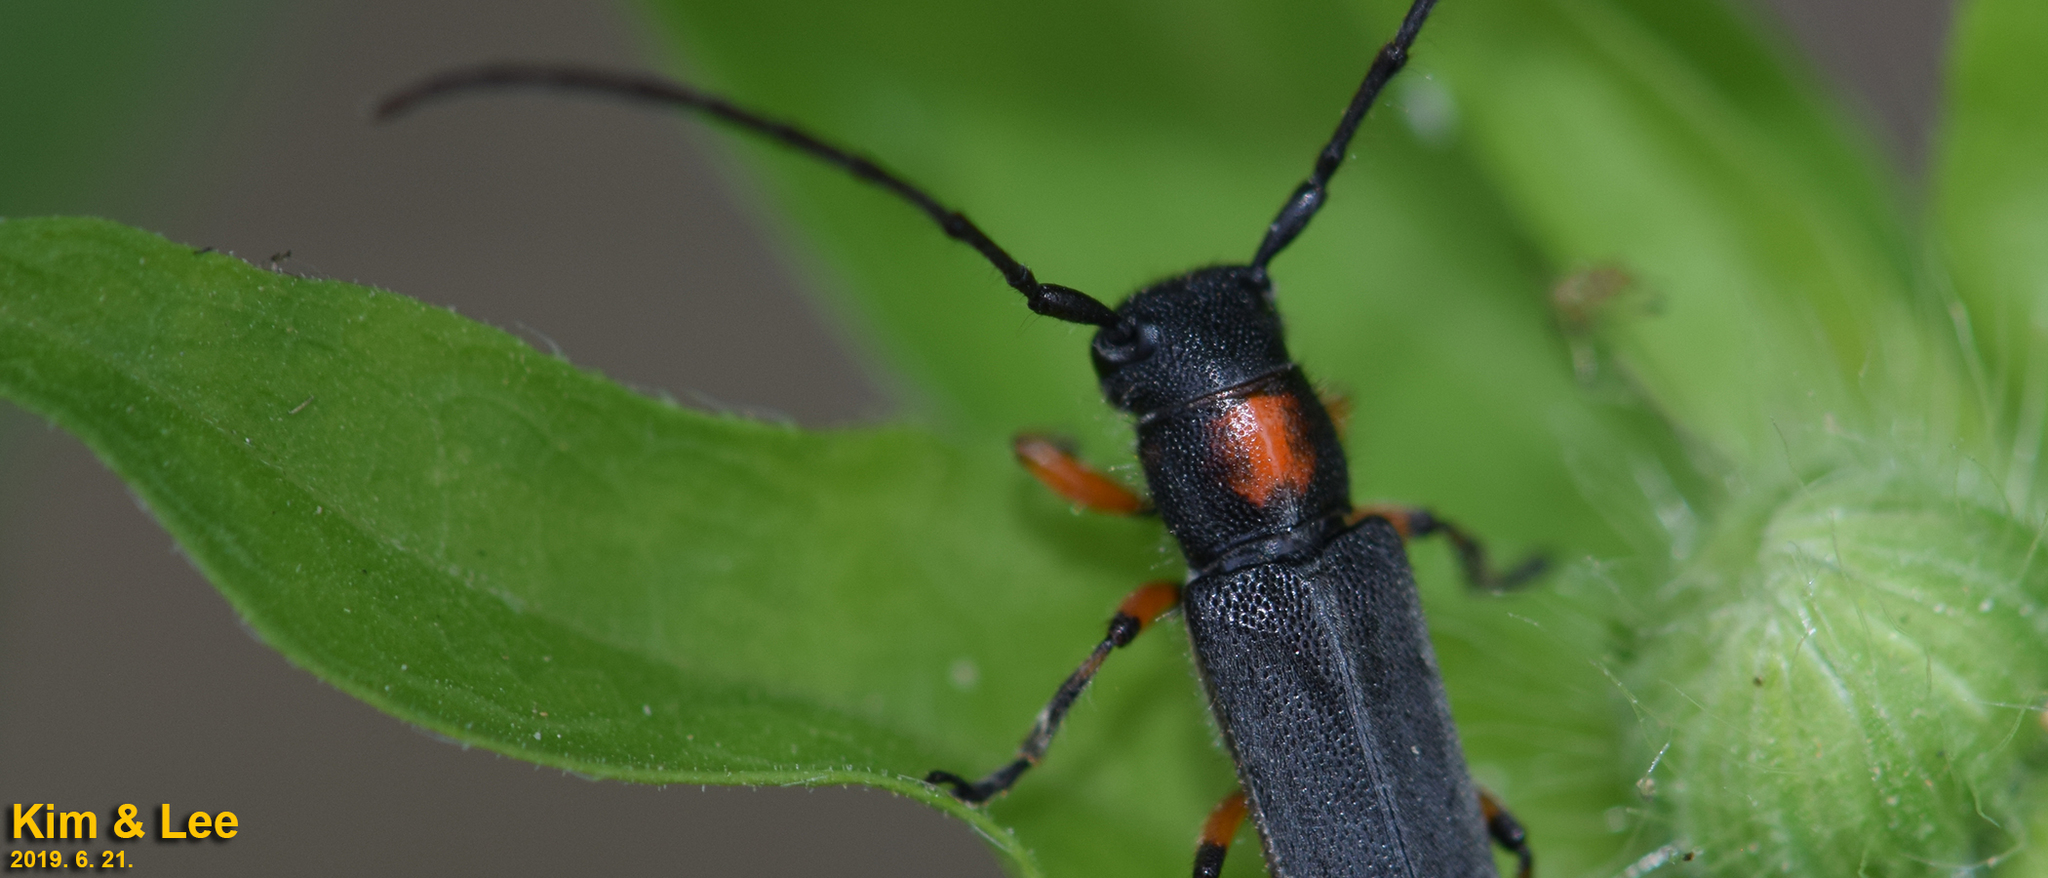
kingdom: Animalia
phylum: Arthropoda
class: Insecta
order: Coleoptera
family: Cerambycidae
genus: Phytoecia
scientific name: Phytoecia rufiventris
